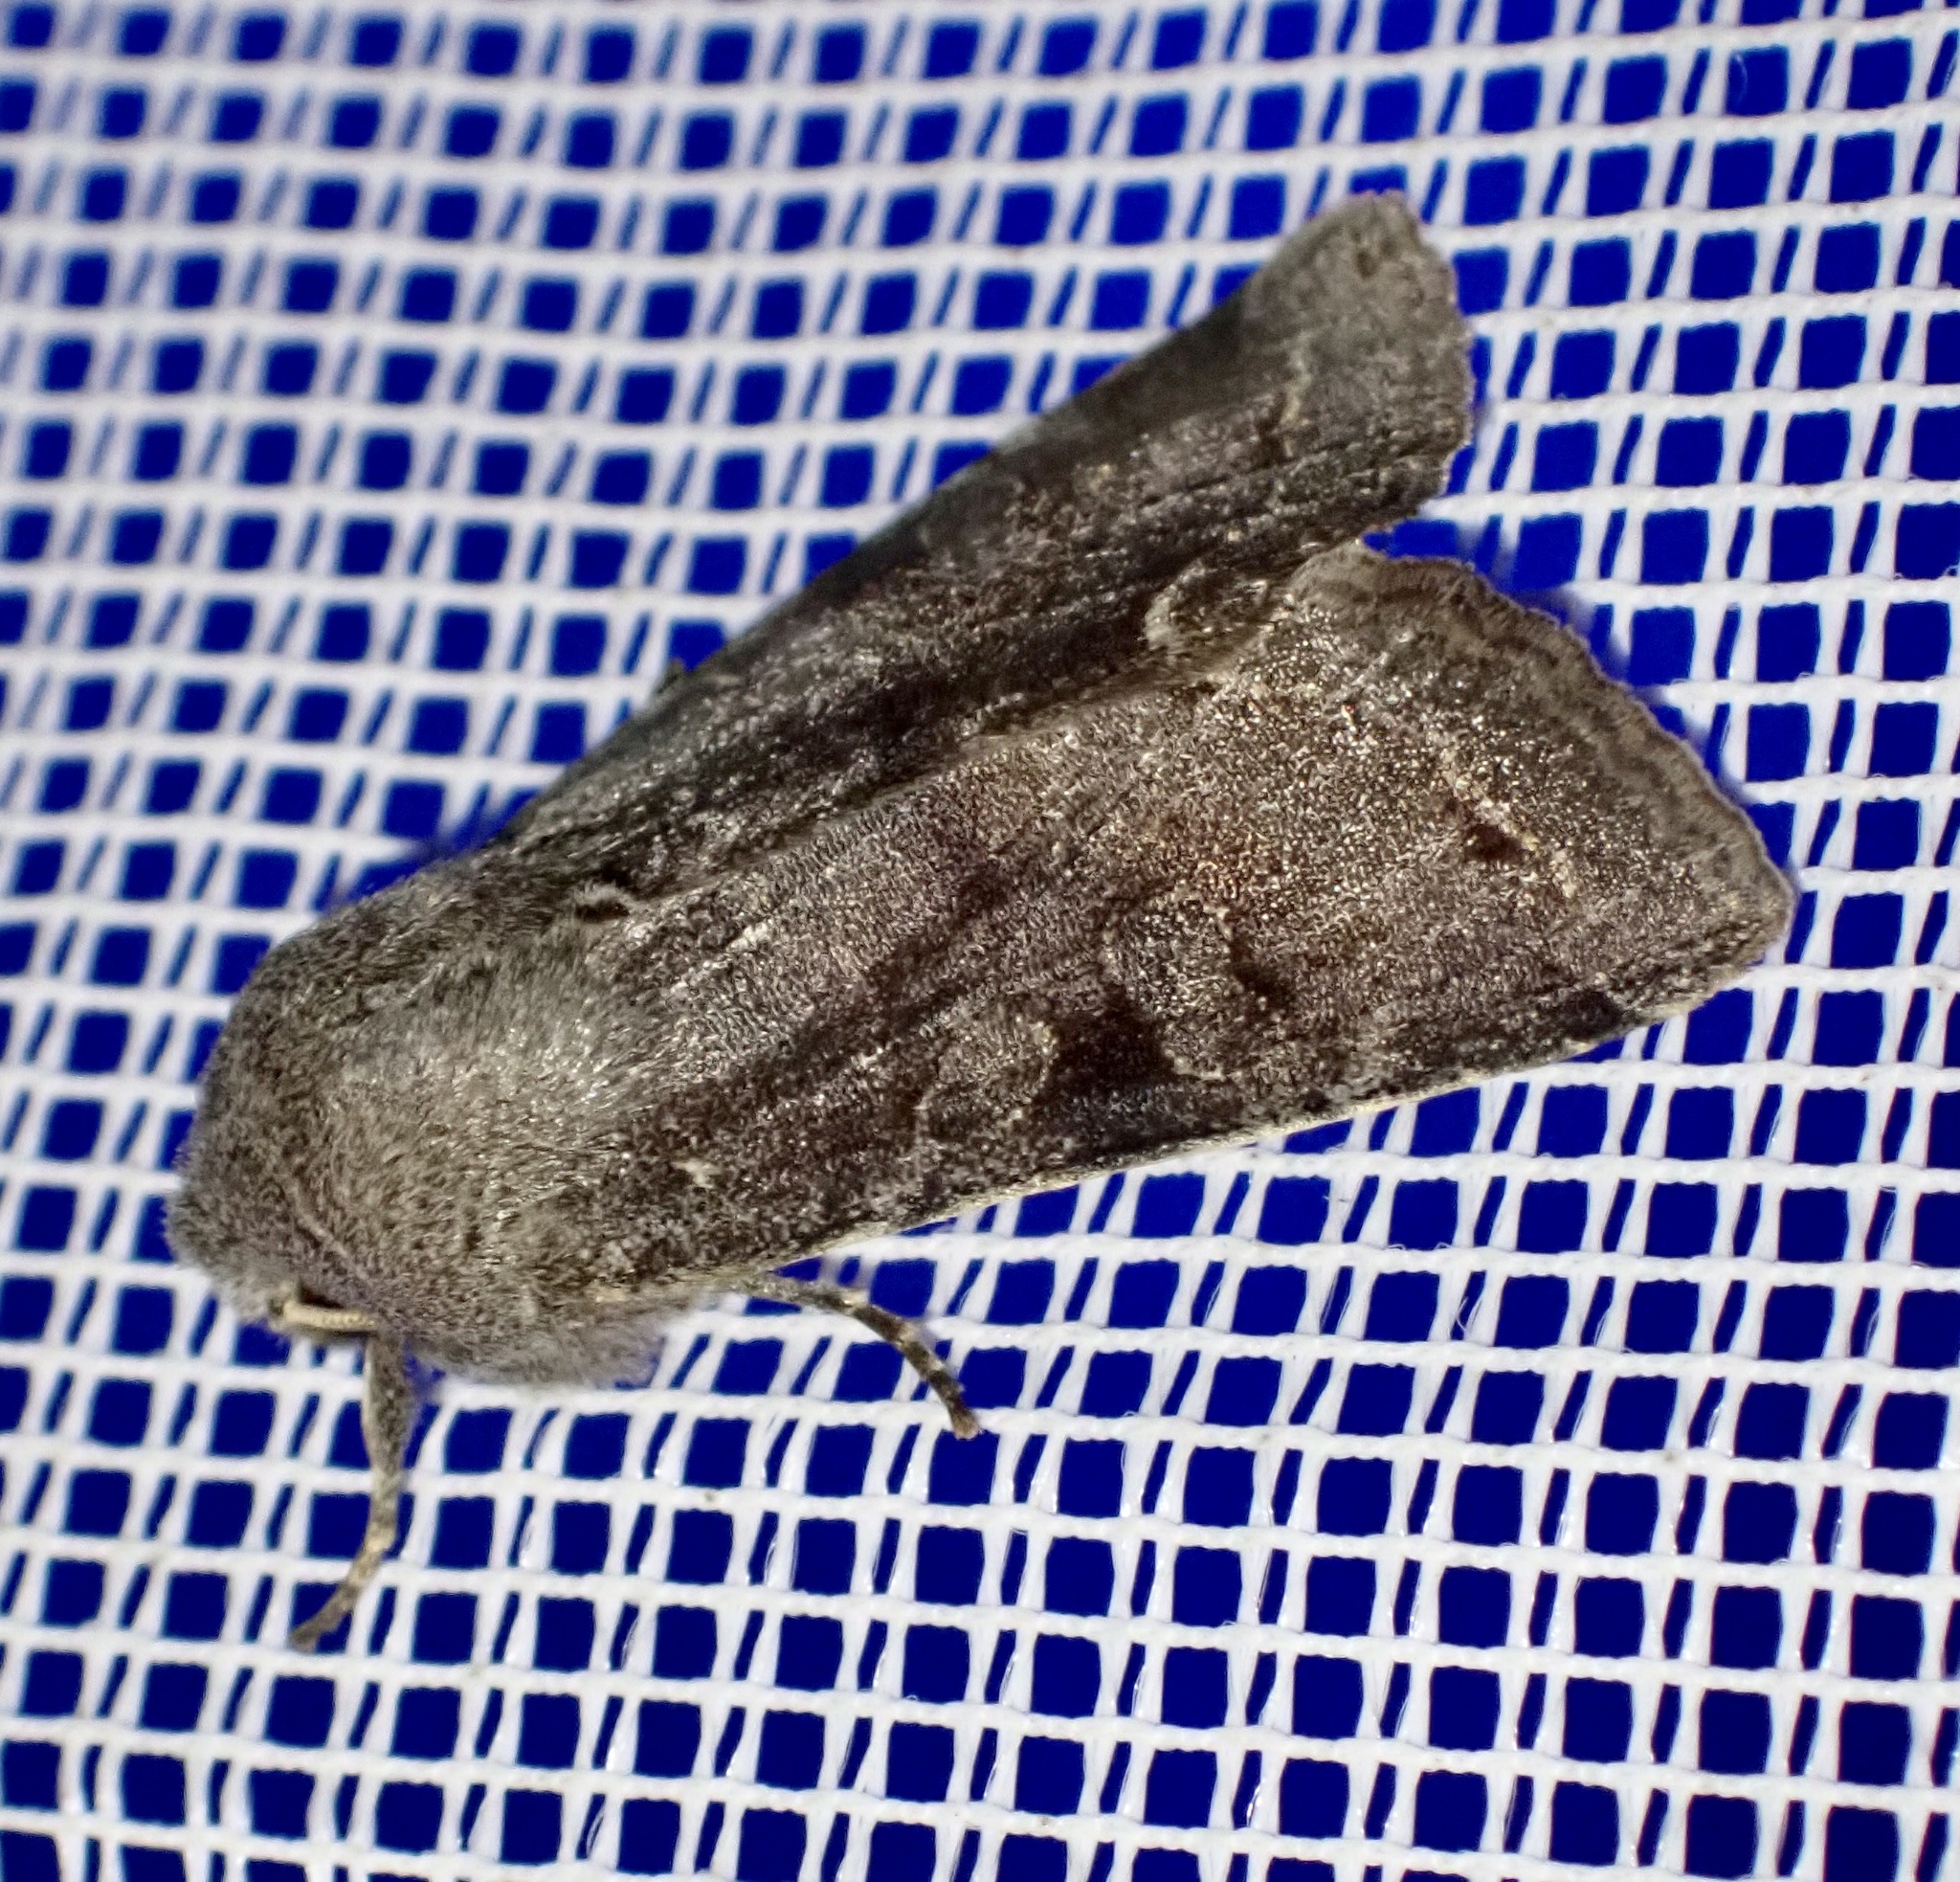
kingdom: Animalia
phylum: Arthropoda
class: Insecta
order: Lepidoptera
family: Noctuidae
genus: Orthosia
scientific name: Orthosia incerta
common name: Clouded drab
